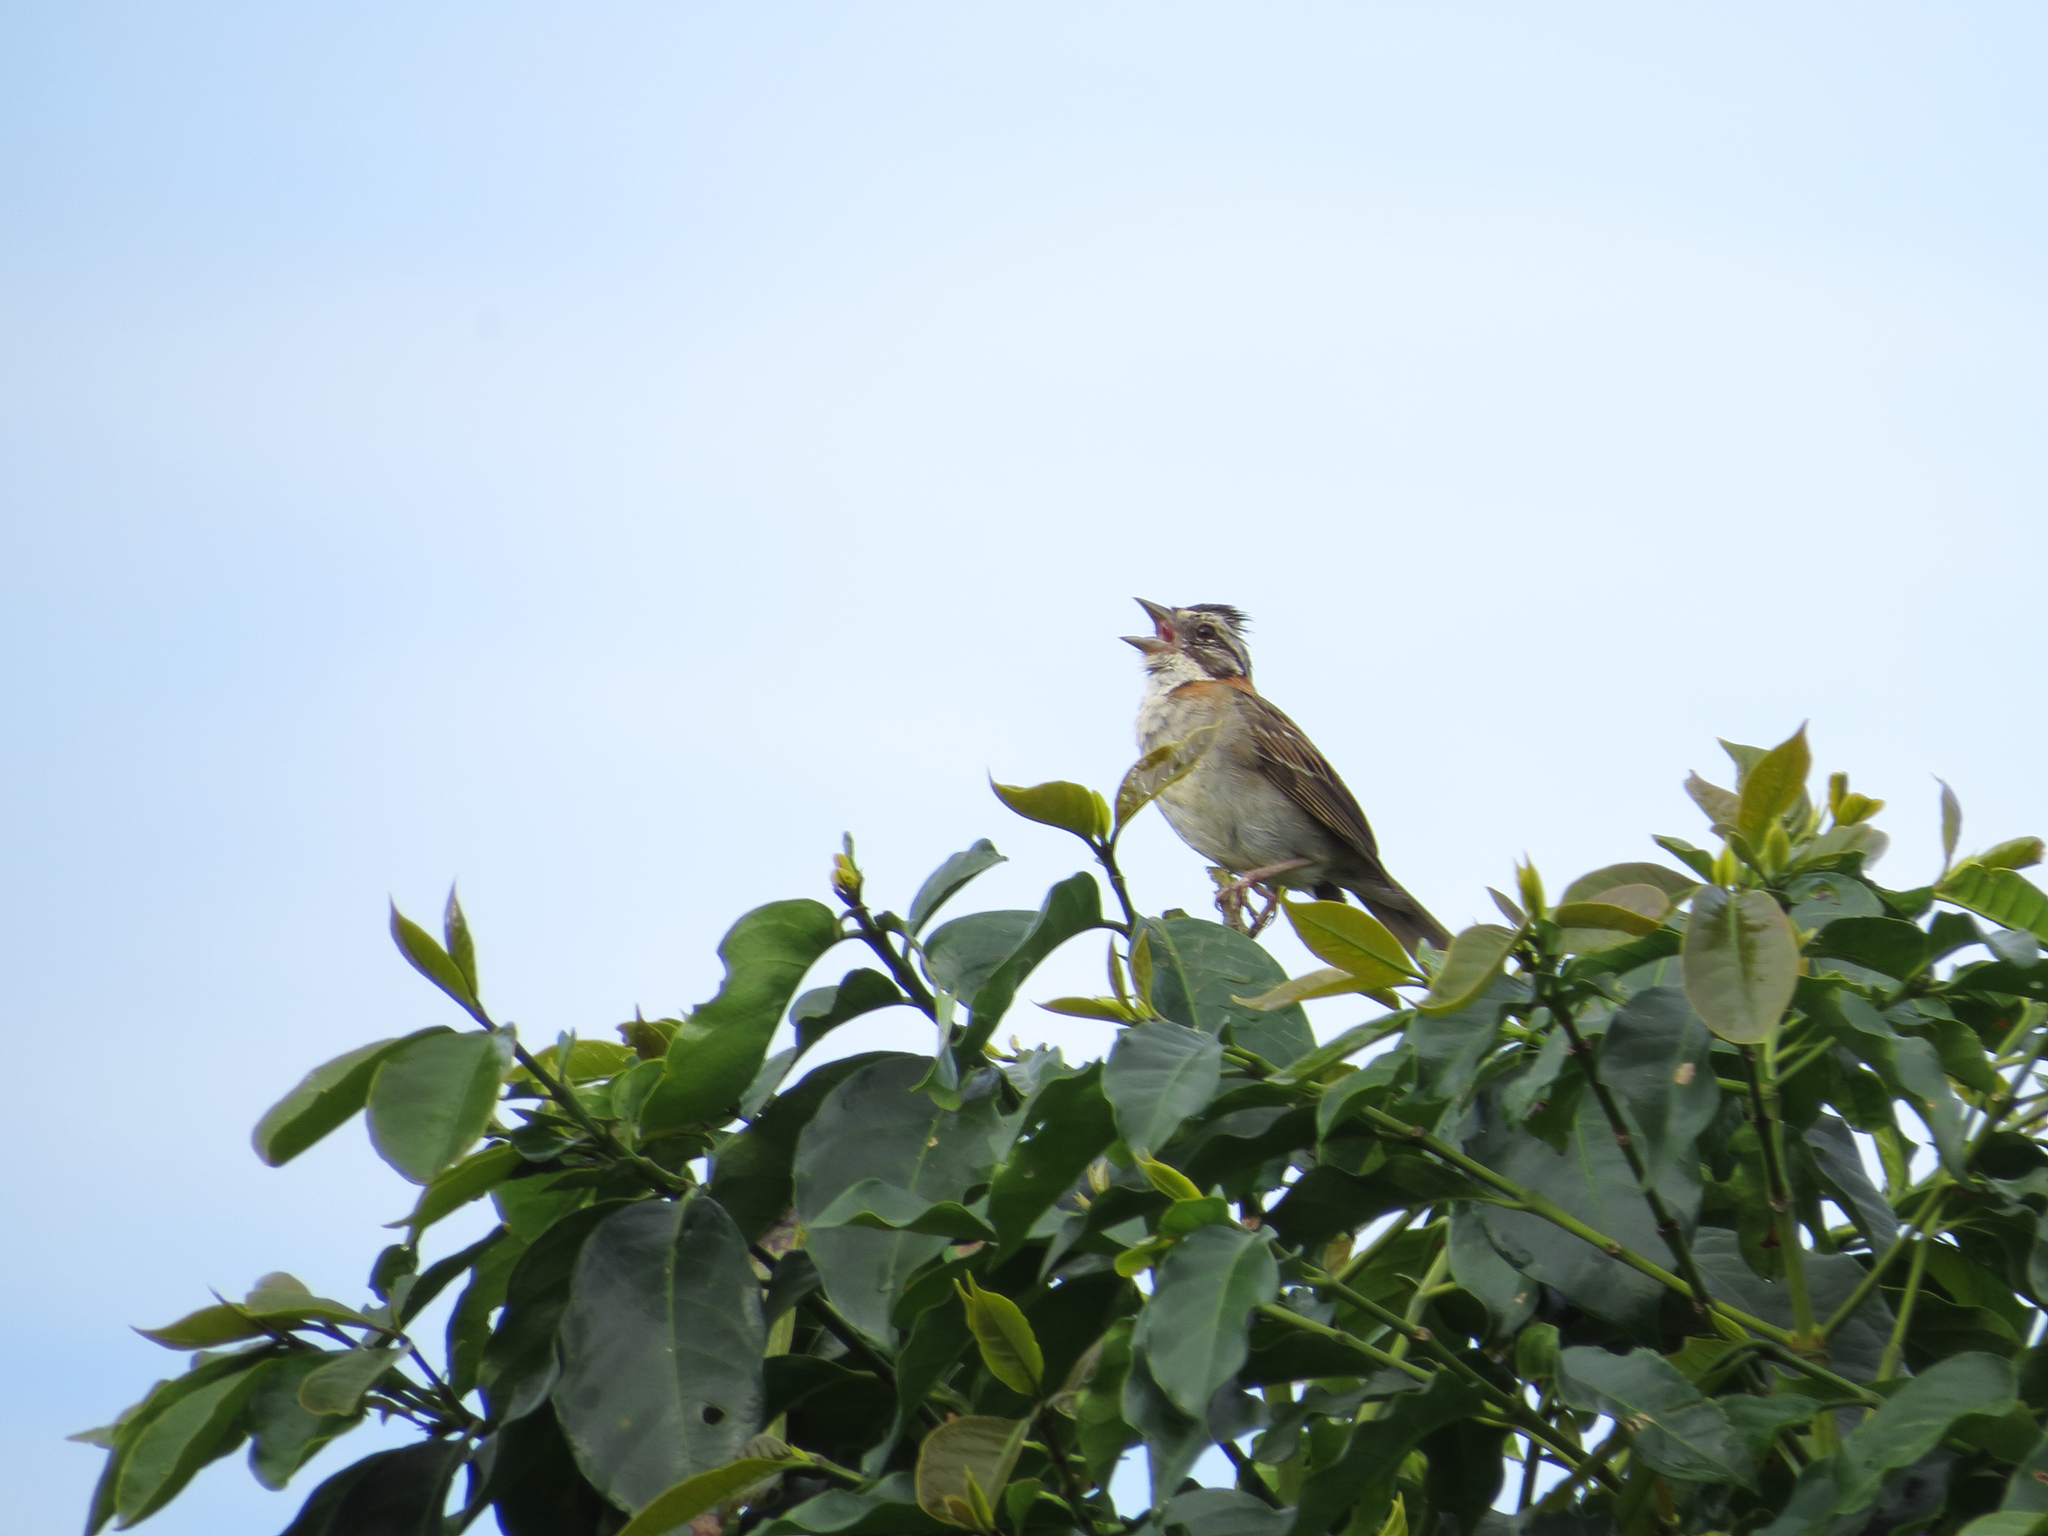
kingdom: Animalia
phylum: Chordata
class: Aves
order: Passeriformes
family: Passerellidae
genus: Zonotrichia
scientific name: Zonotrichia capensis
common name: Rufous-collared sparrow
